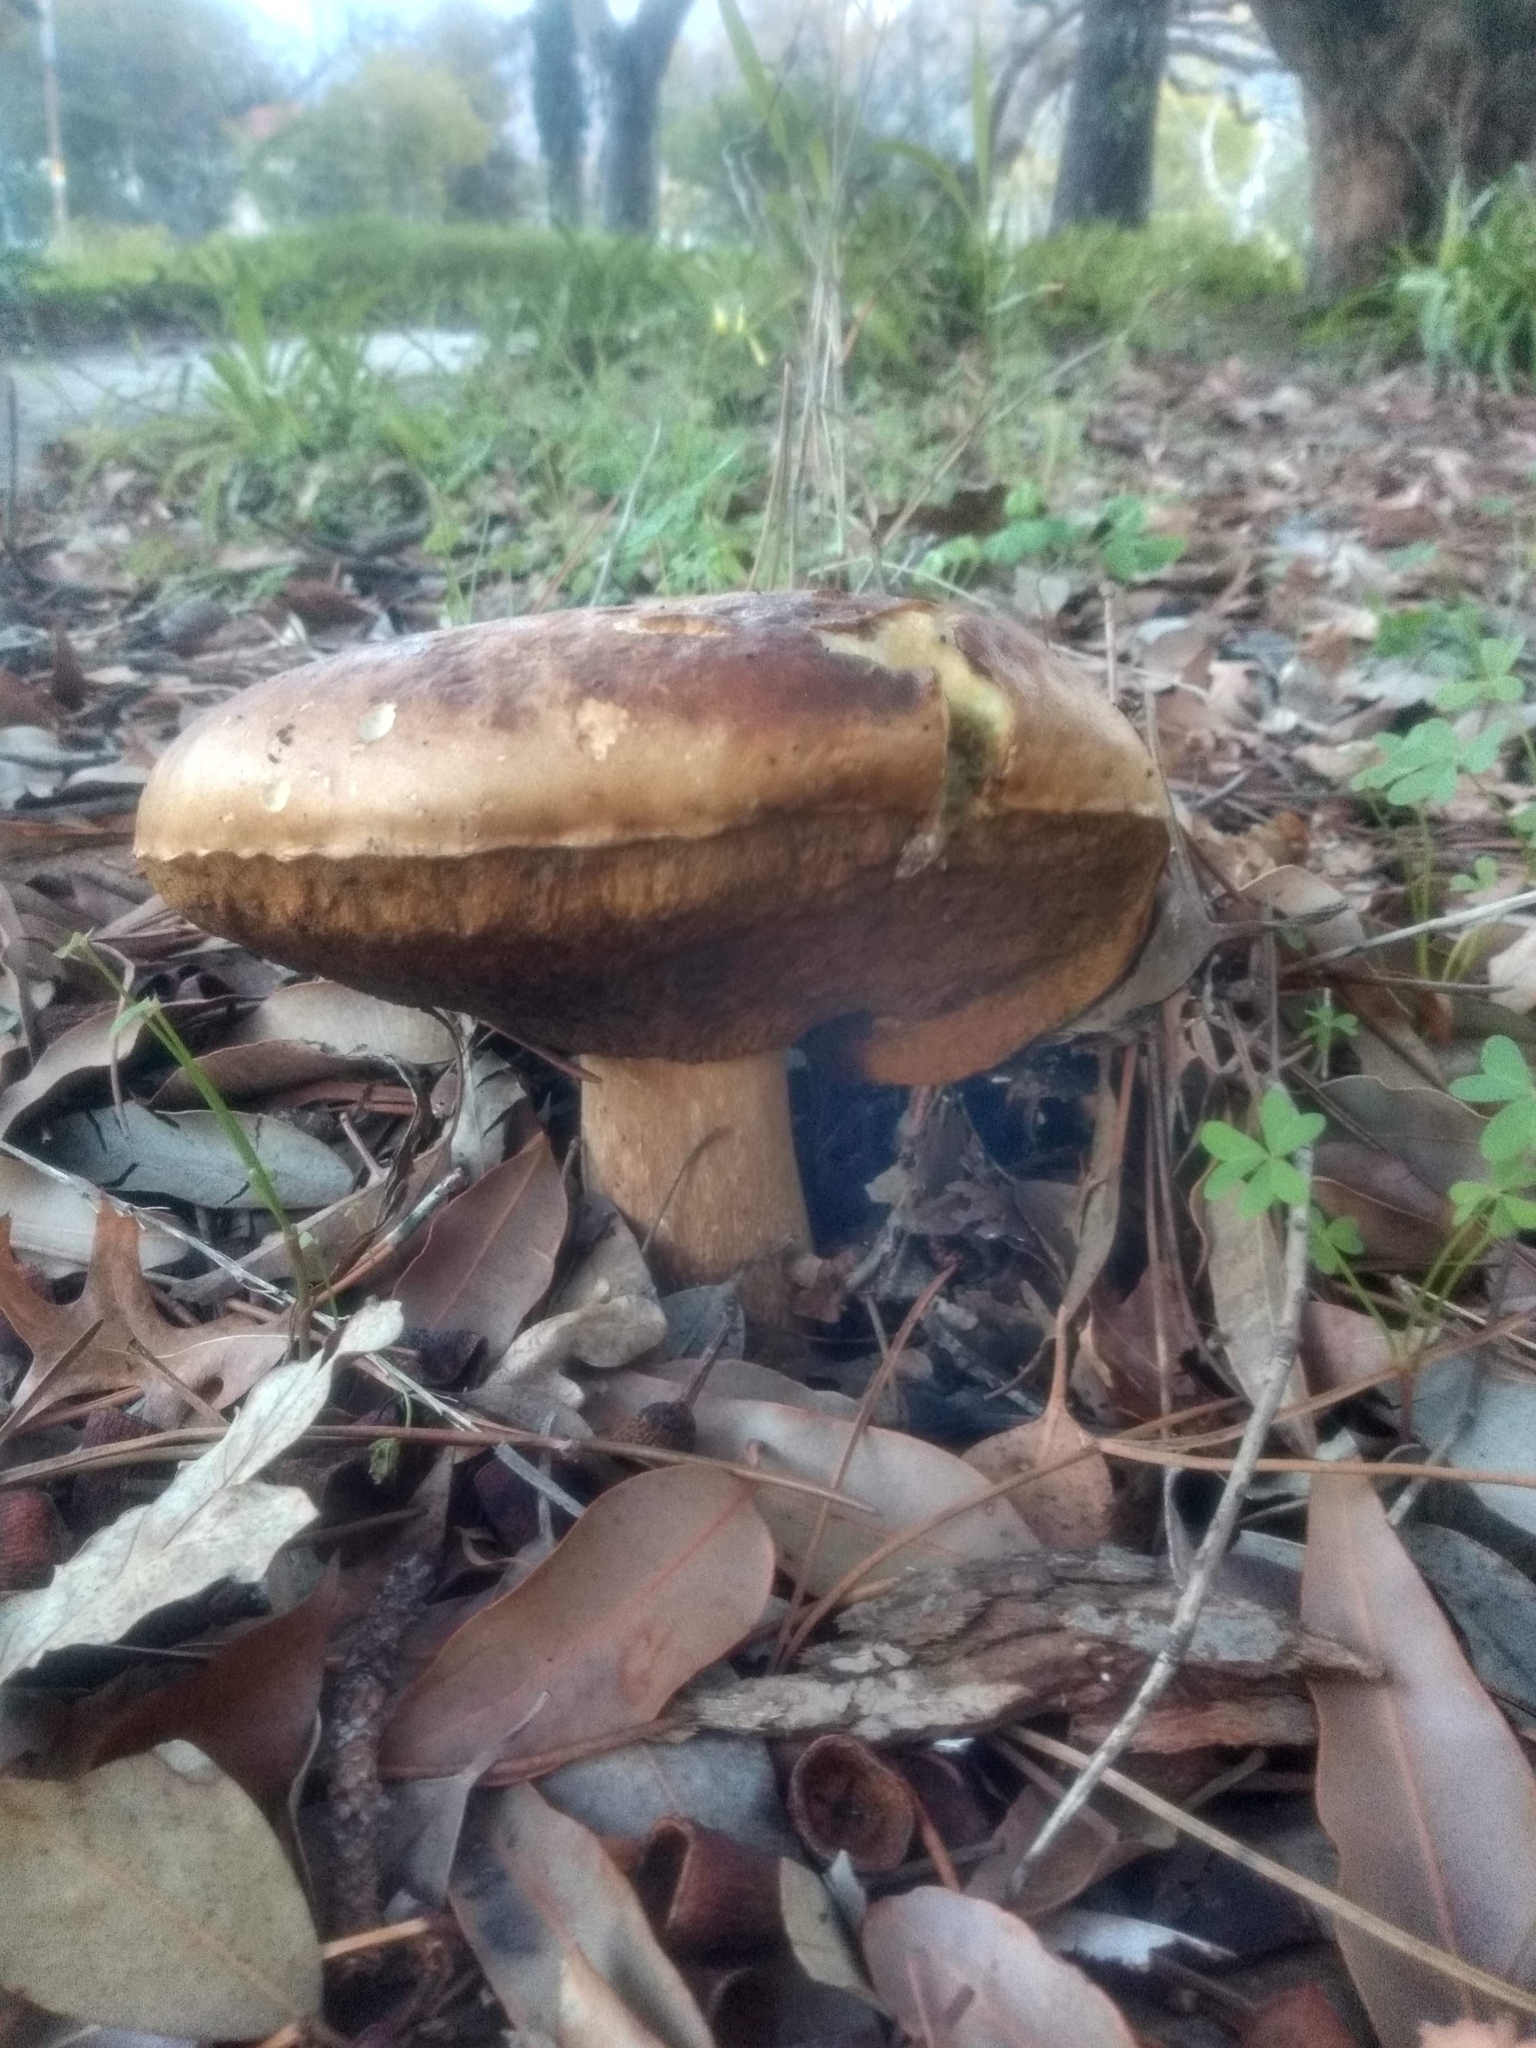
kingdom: Fungi
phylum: Basidiomycota
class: Agaricomycetes
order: Boletales
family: Boletaceae
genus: Boletus
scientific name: Boletus edulis
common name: Cep
